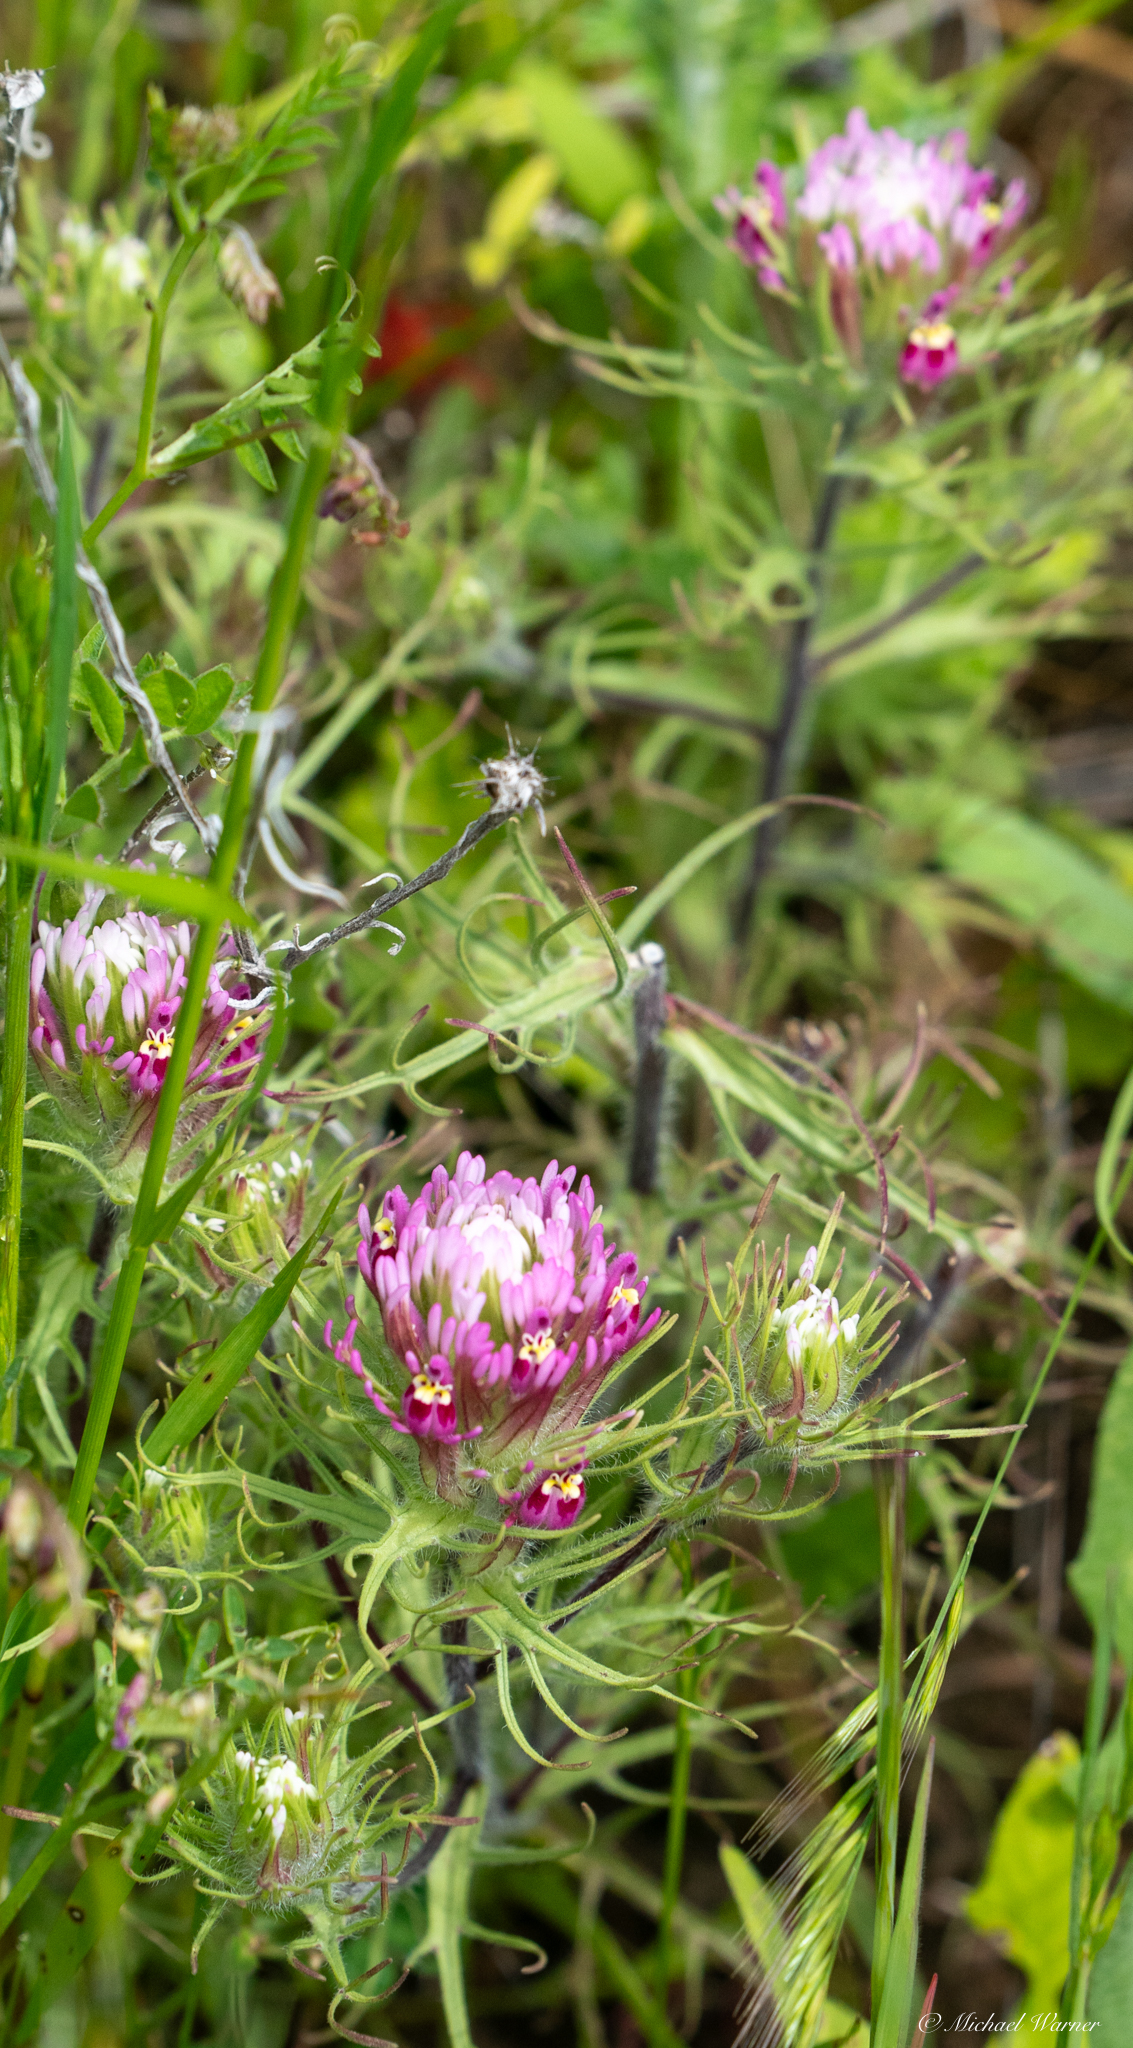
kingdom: Plantae
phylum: Tracheophyta
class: Magnoliopsida
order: Lamiales
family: Orobanchaceae
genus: Castilleja
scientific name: Castilleja exserta
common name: Purple owl-clover
